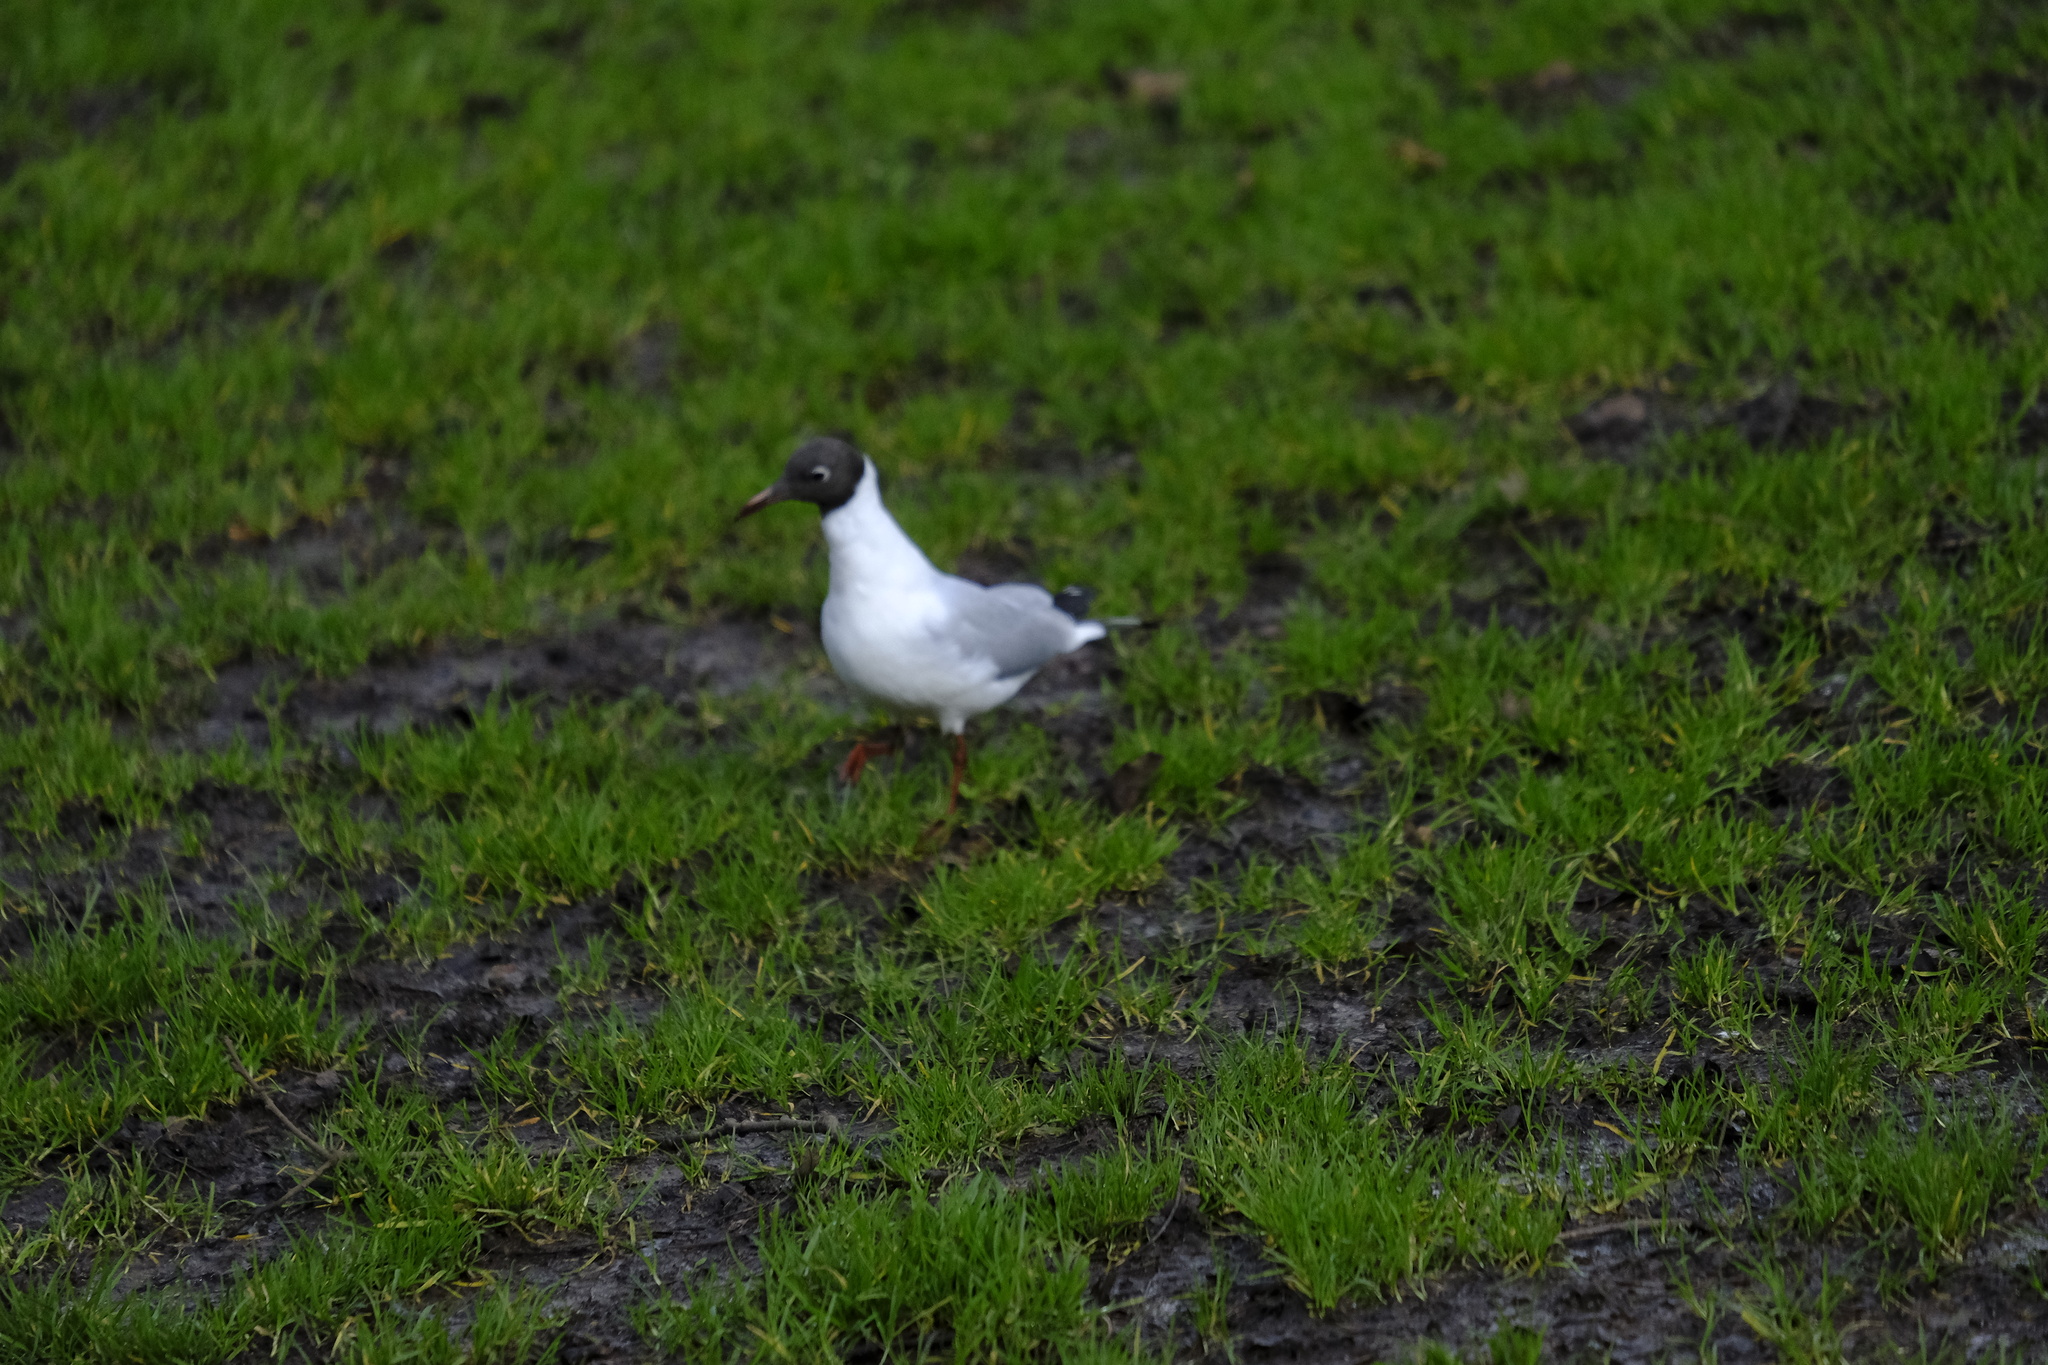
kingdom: Animalia
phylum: Chordata
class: Aves
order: Charadriiformes
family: Laridae
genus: Chroicocephalus
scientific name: Chroicocephalus ridibundus
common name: Black-headed gull
